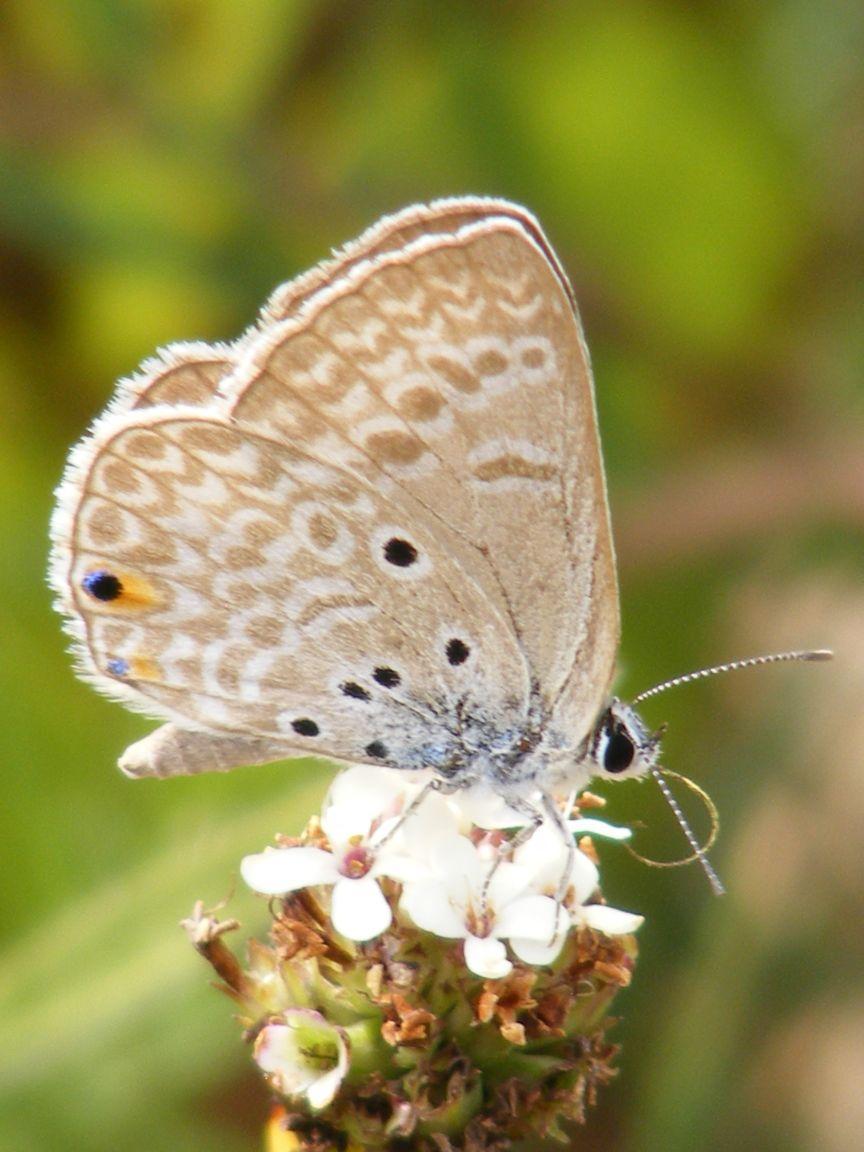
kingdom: Animalia
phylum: Arthropoda
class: Insecta
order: Lepidoptera
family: Lycaenidae
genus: Lepidochrysops
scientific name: Lepidochrysops plebeia
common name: Twin-spot giant cupid
